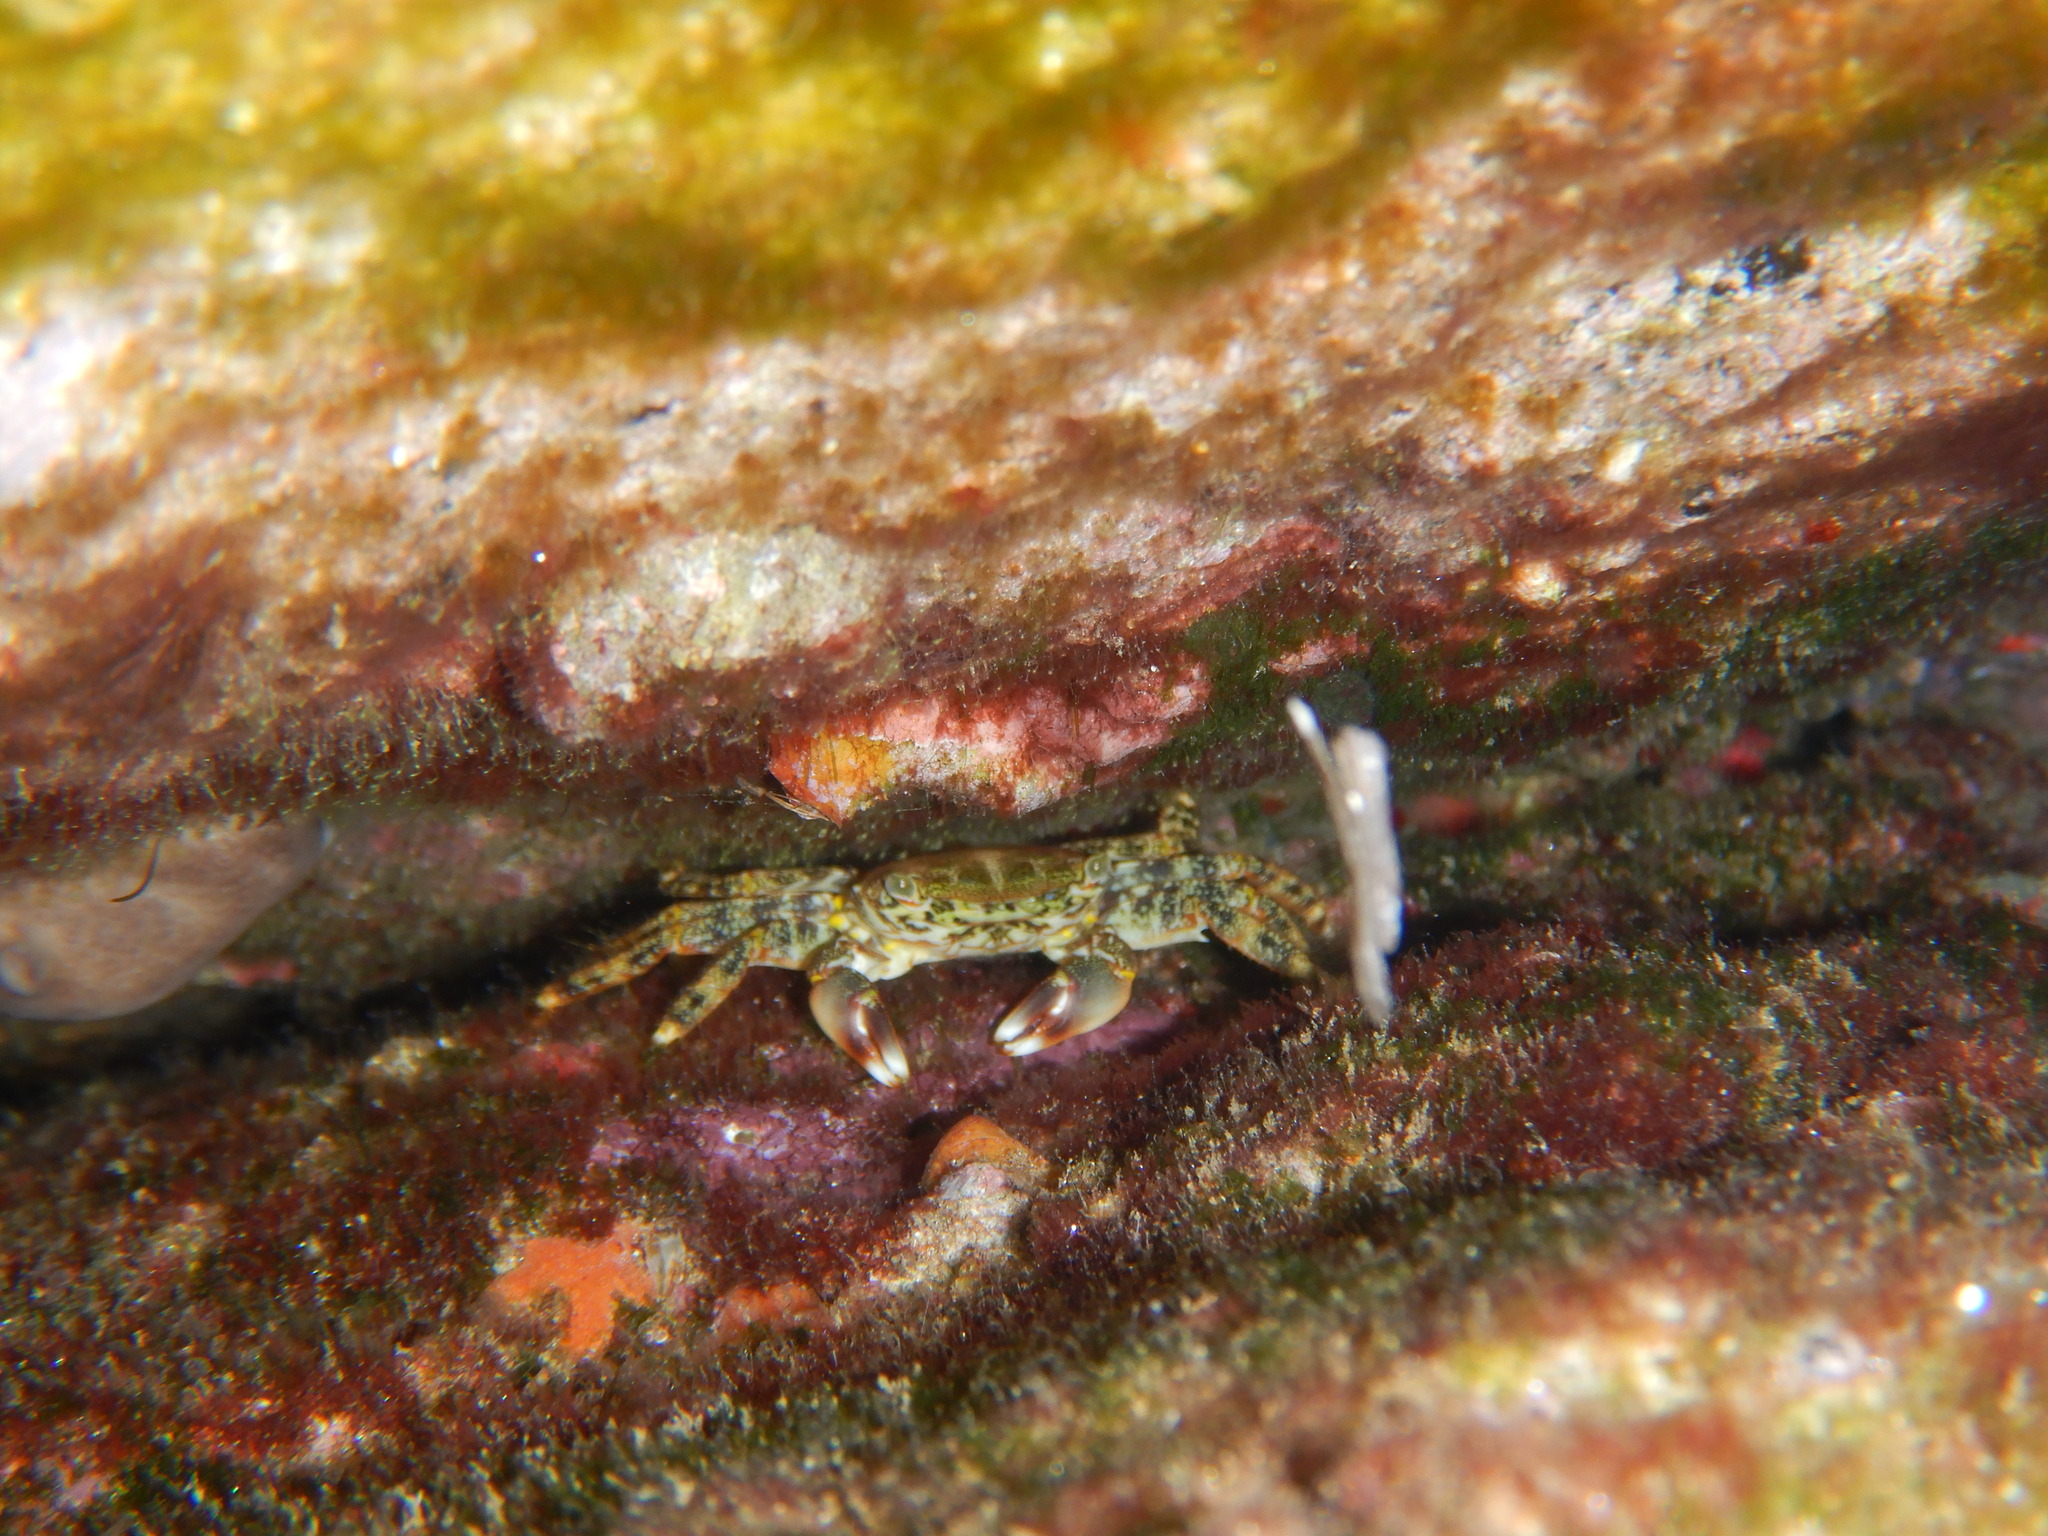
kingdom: Animalia
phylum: Arthropoda
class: Malacostraca
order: Decapoda
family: Grapsidae
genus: Pachygrapsus
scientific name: Pachygrapsus marmoratus
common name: Marbled rock crab
